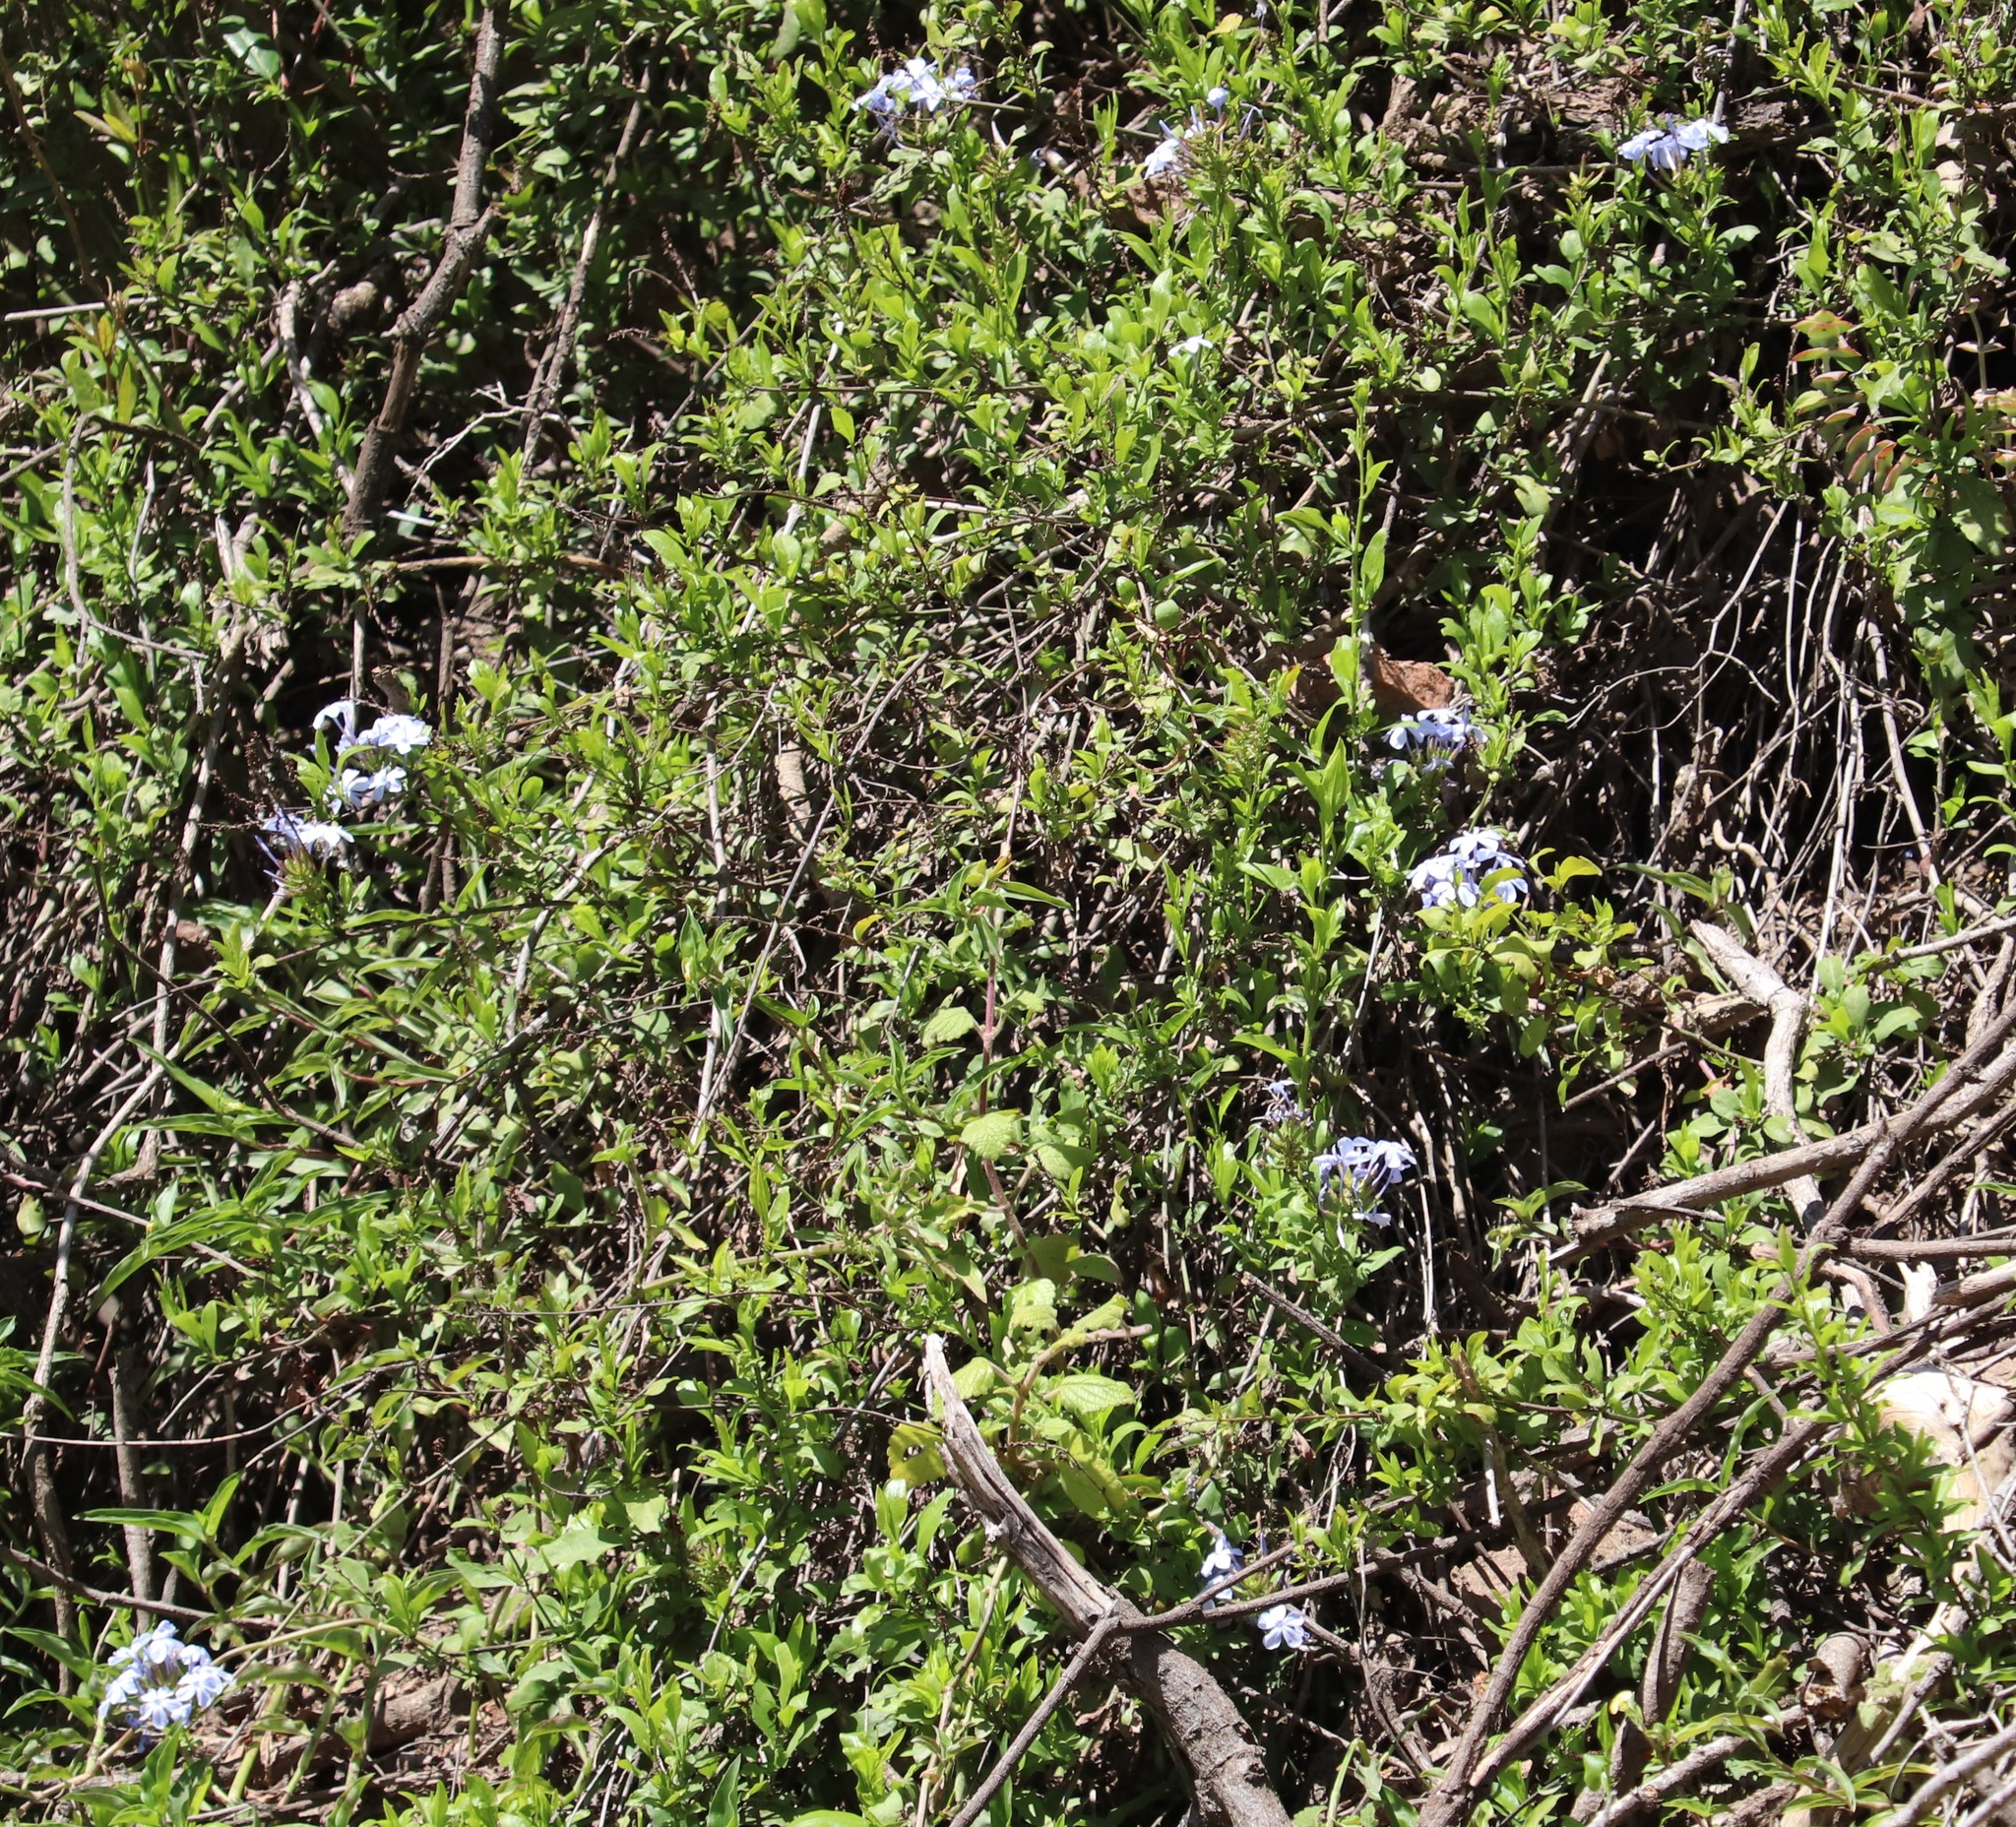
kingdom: Plantae
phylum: Tracheophyta
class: Magnoliopsida
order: Caryophyllales
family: Plumbaginaceae
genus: Plumbago
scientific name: Plumbago auriculata
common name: Cape leadwort
